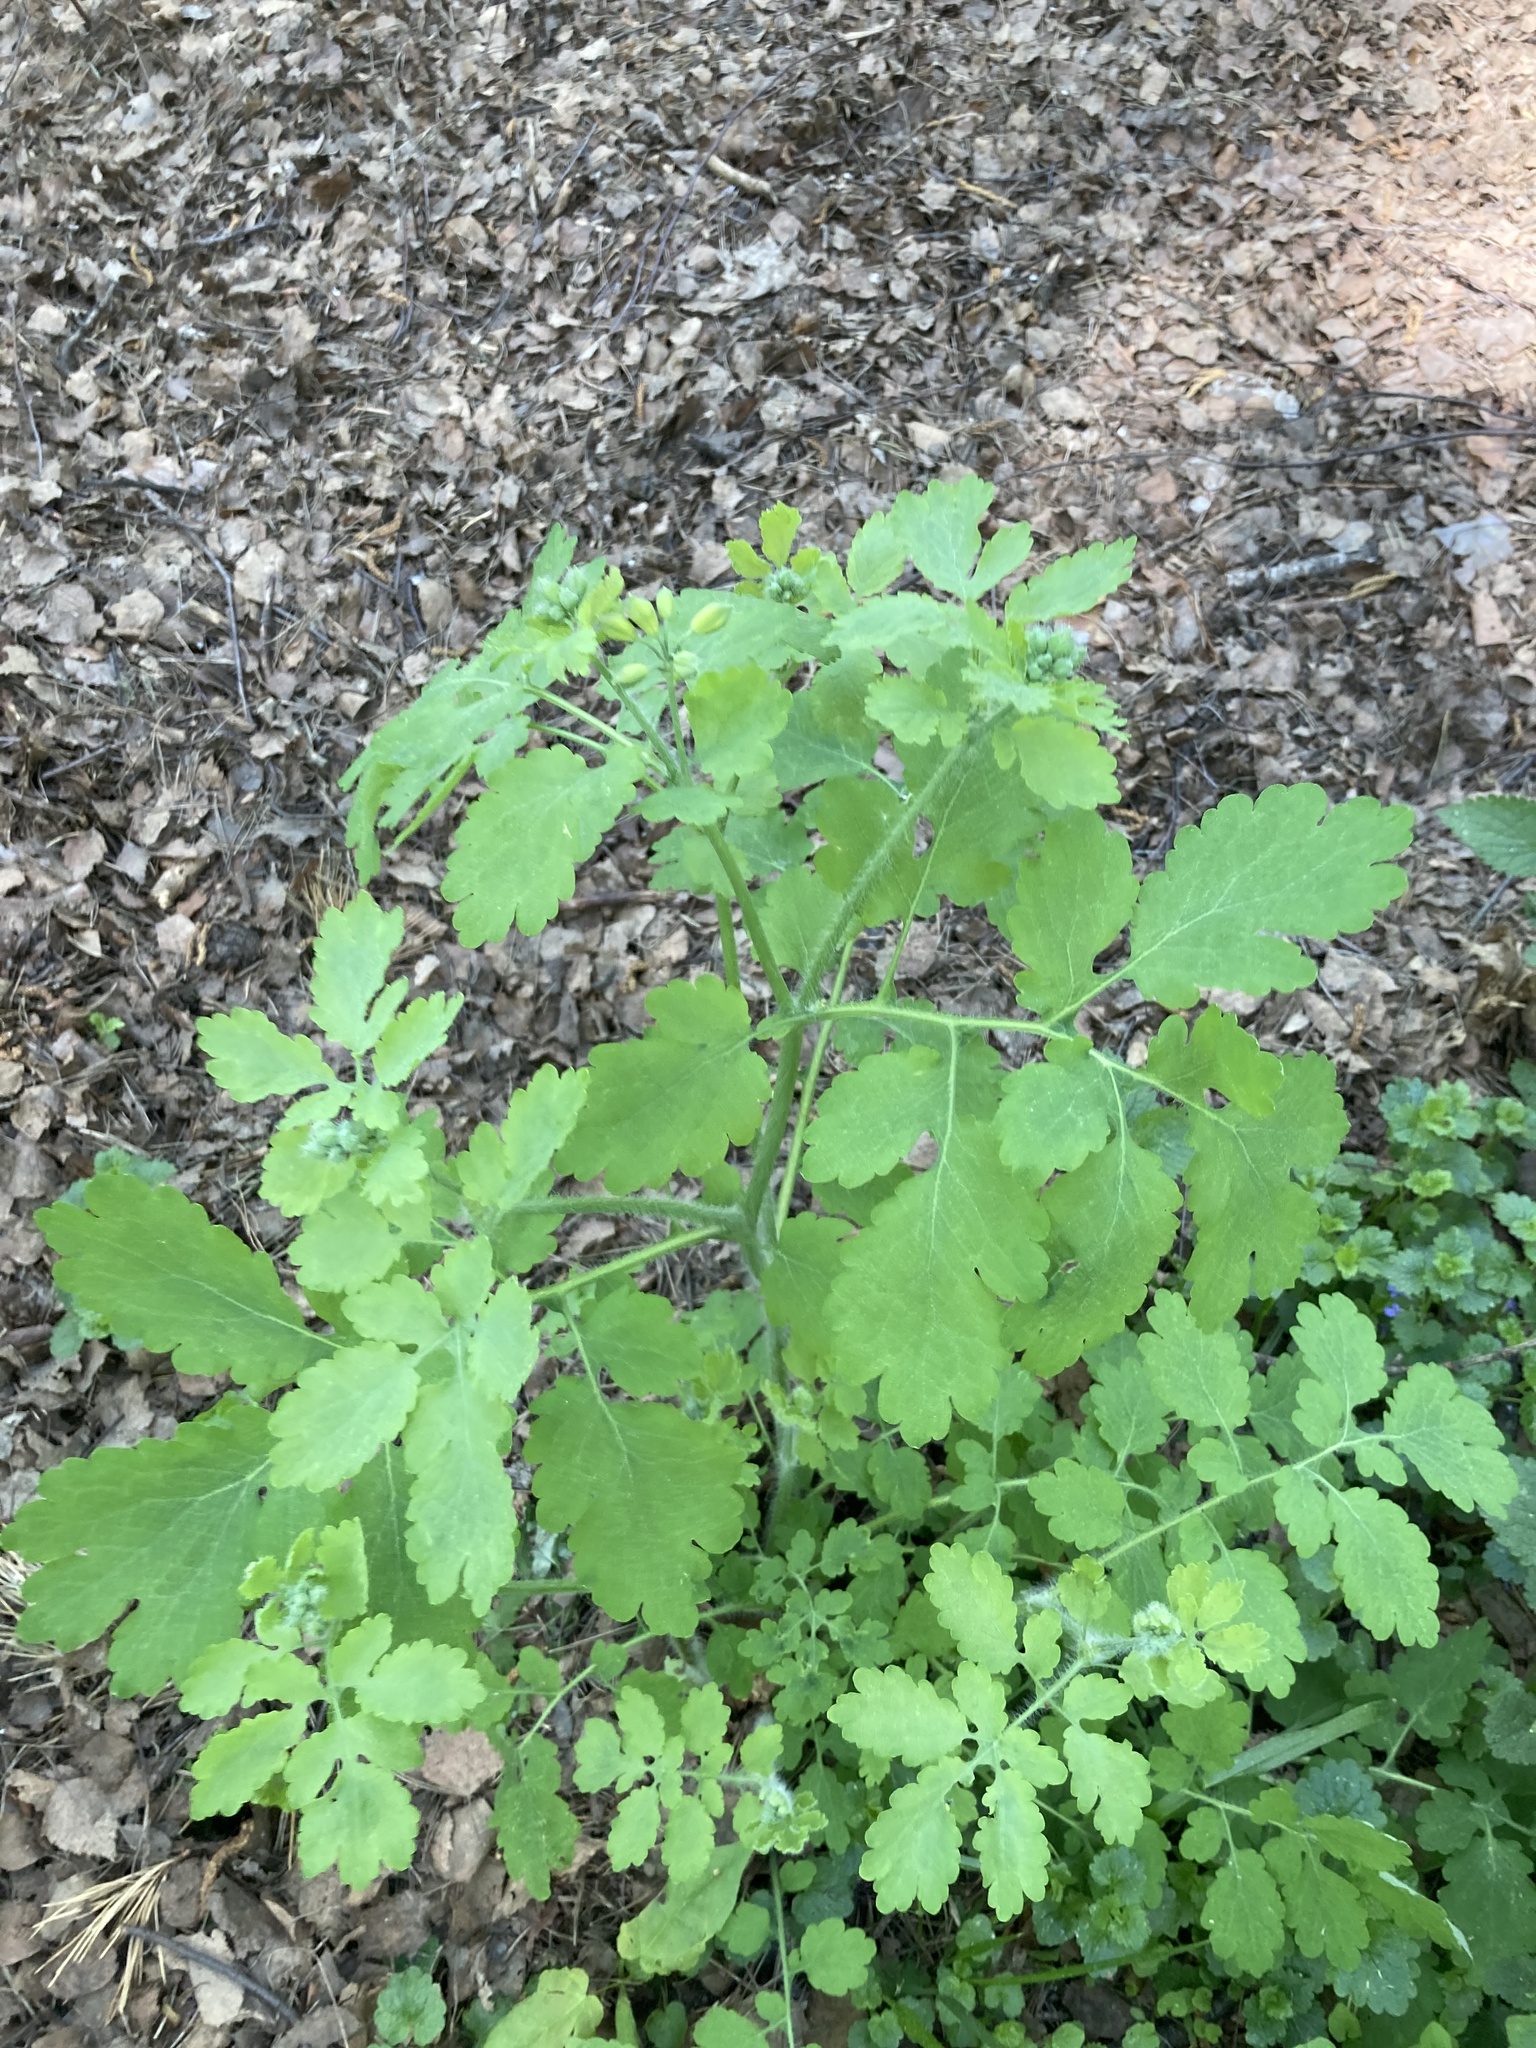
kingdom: Plantae
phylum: Tracheophyta
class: Magnoliopsida
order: Ranunculales
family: Papaveraceae
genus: Chelidonium
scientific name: Chelidonium majus
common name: Greater celandine
